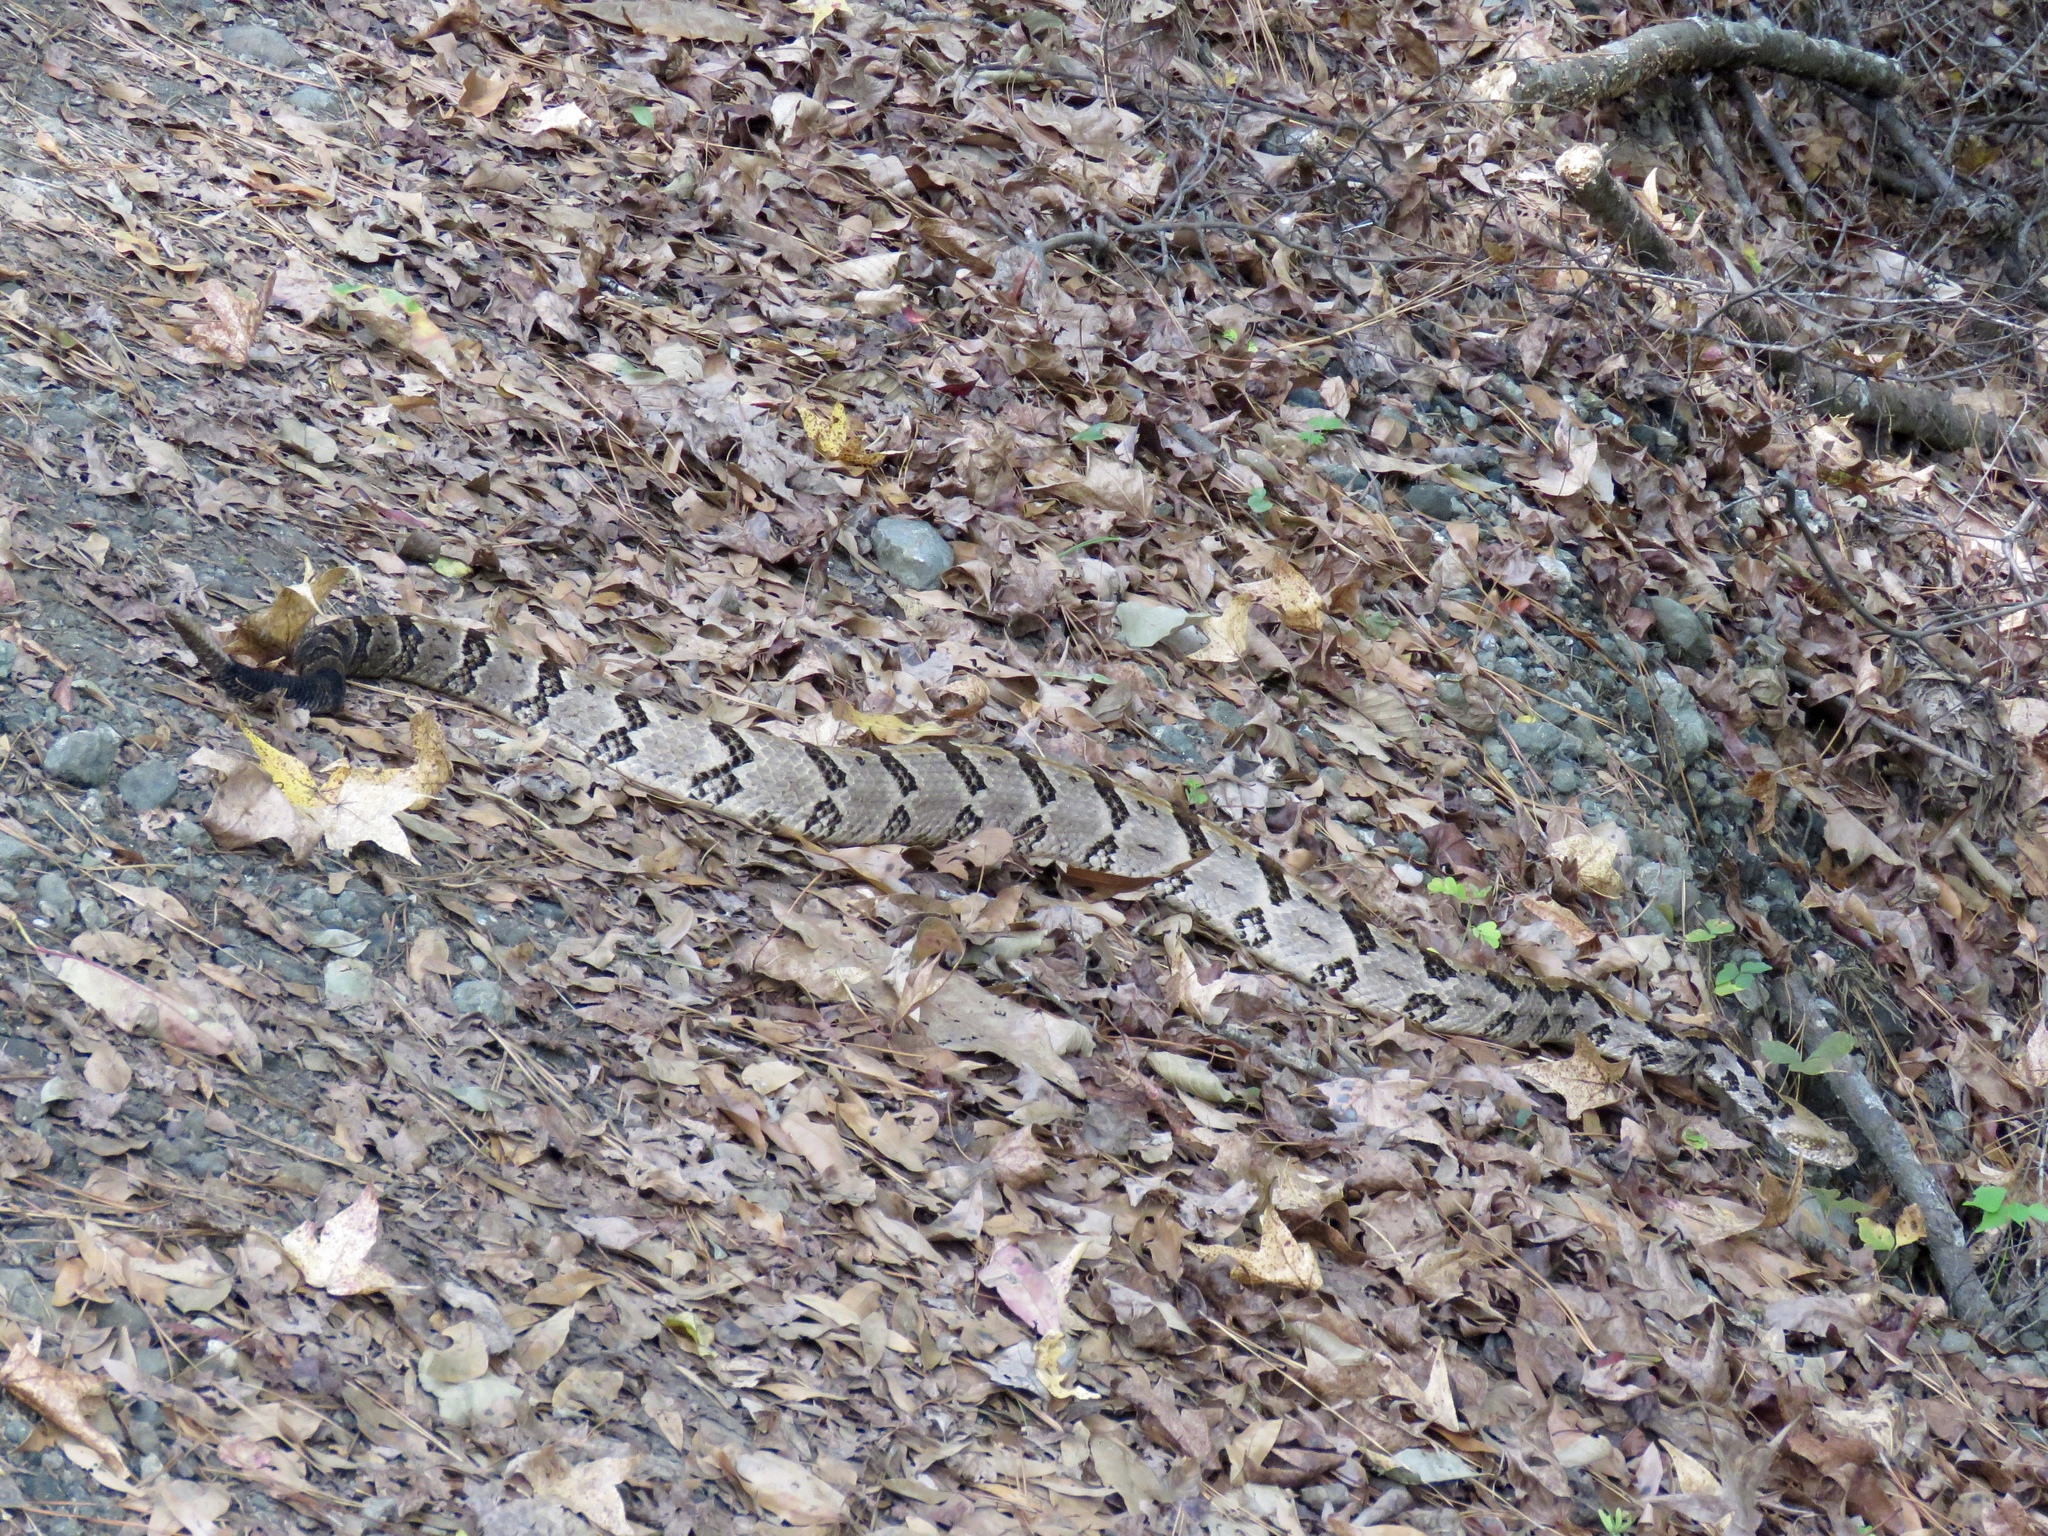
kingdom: Animalia
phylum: Chordata
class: Squamata
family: Viperidae
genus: Crotalus
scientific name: Crotalus horridus
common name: Timber rattlesnake
